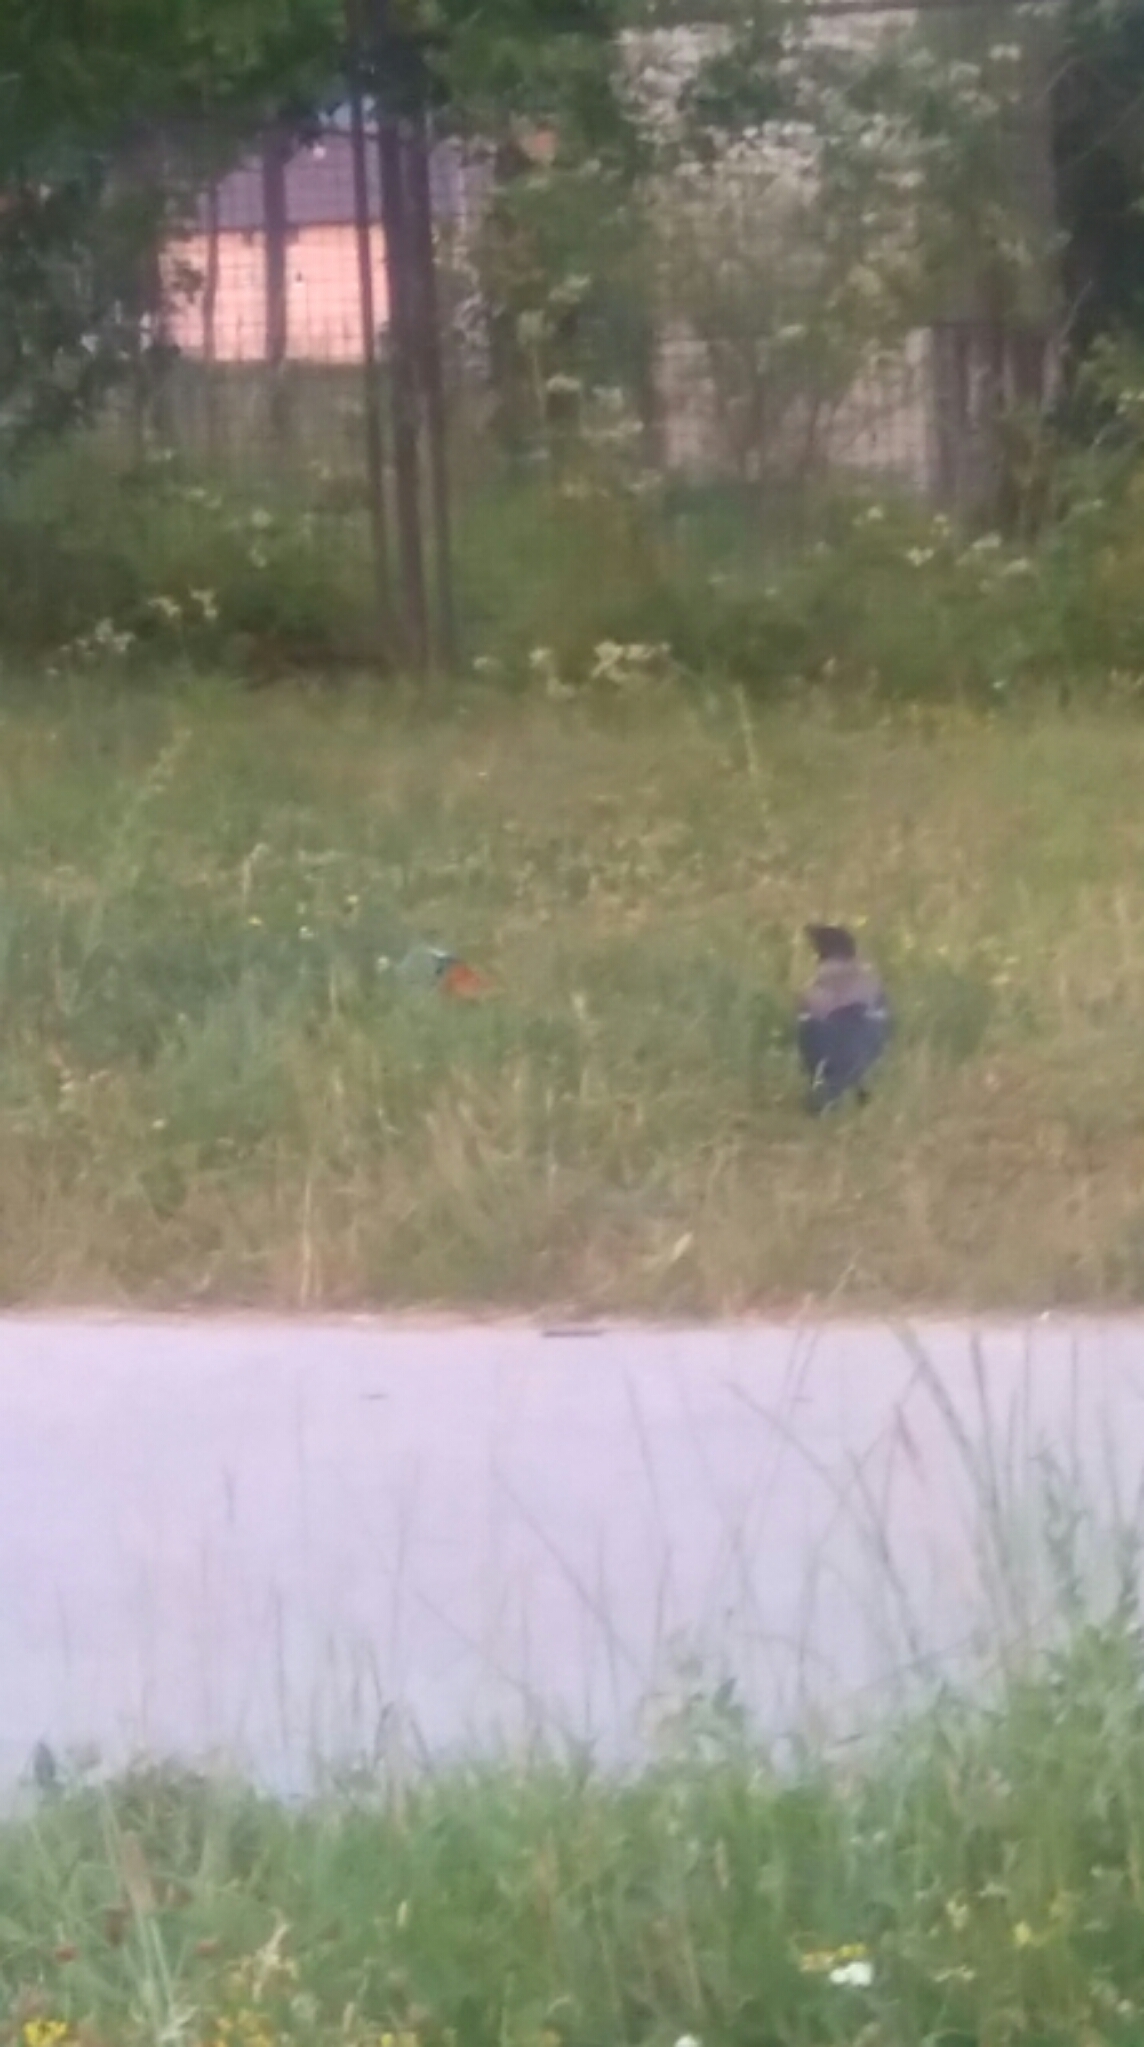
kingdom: Animalia
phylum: Chordata
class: Aves
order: Passeriformes
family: Corvidae
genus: Corvus
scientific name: Corvus cornix
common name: Hooded crow
